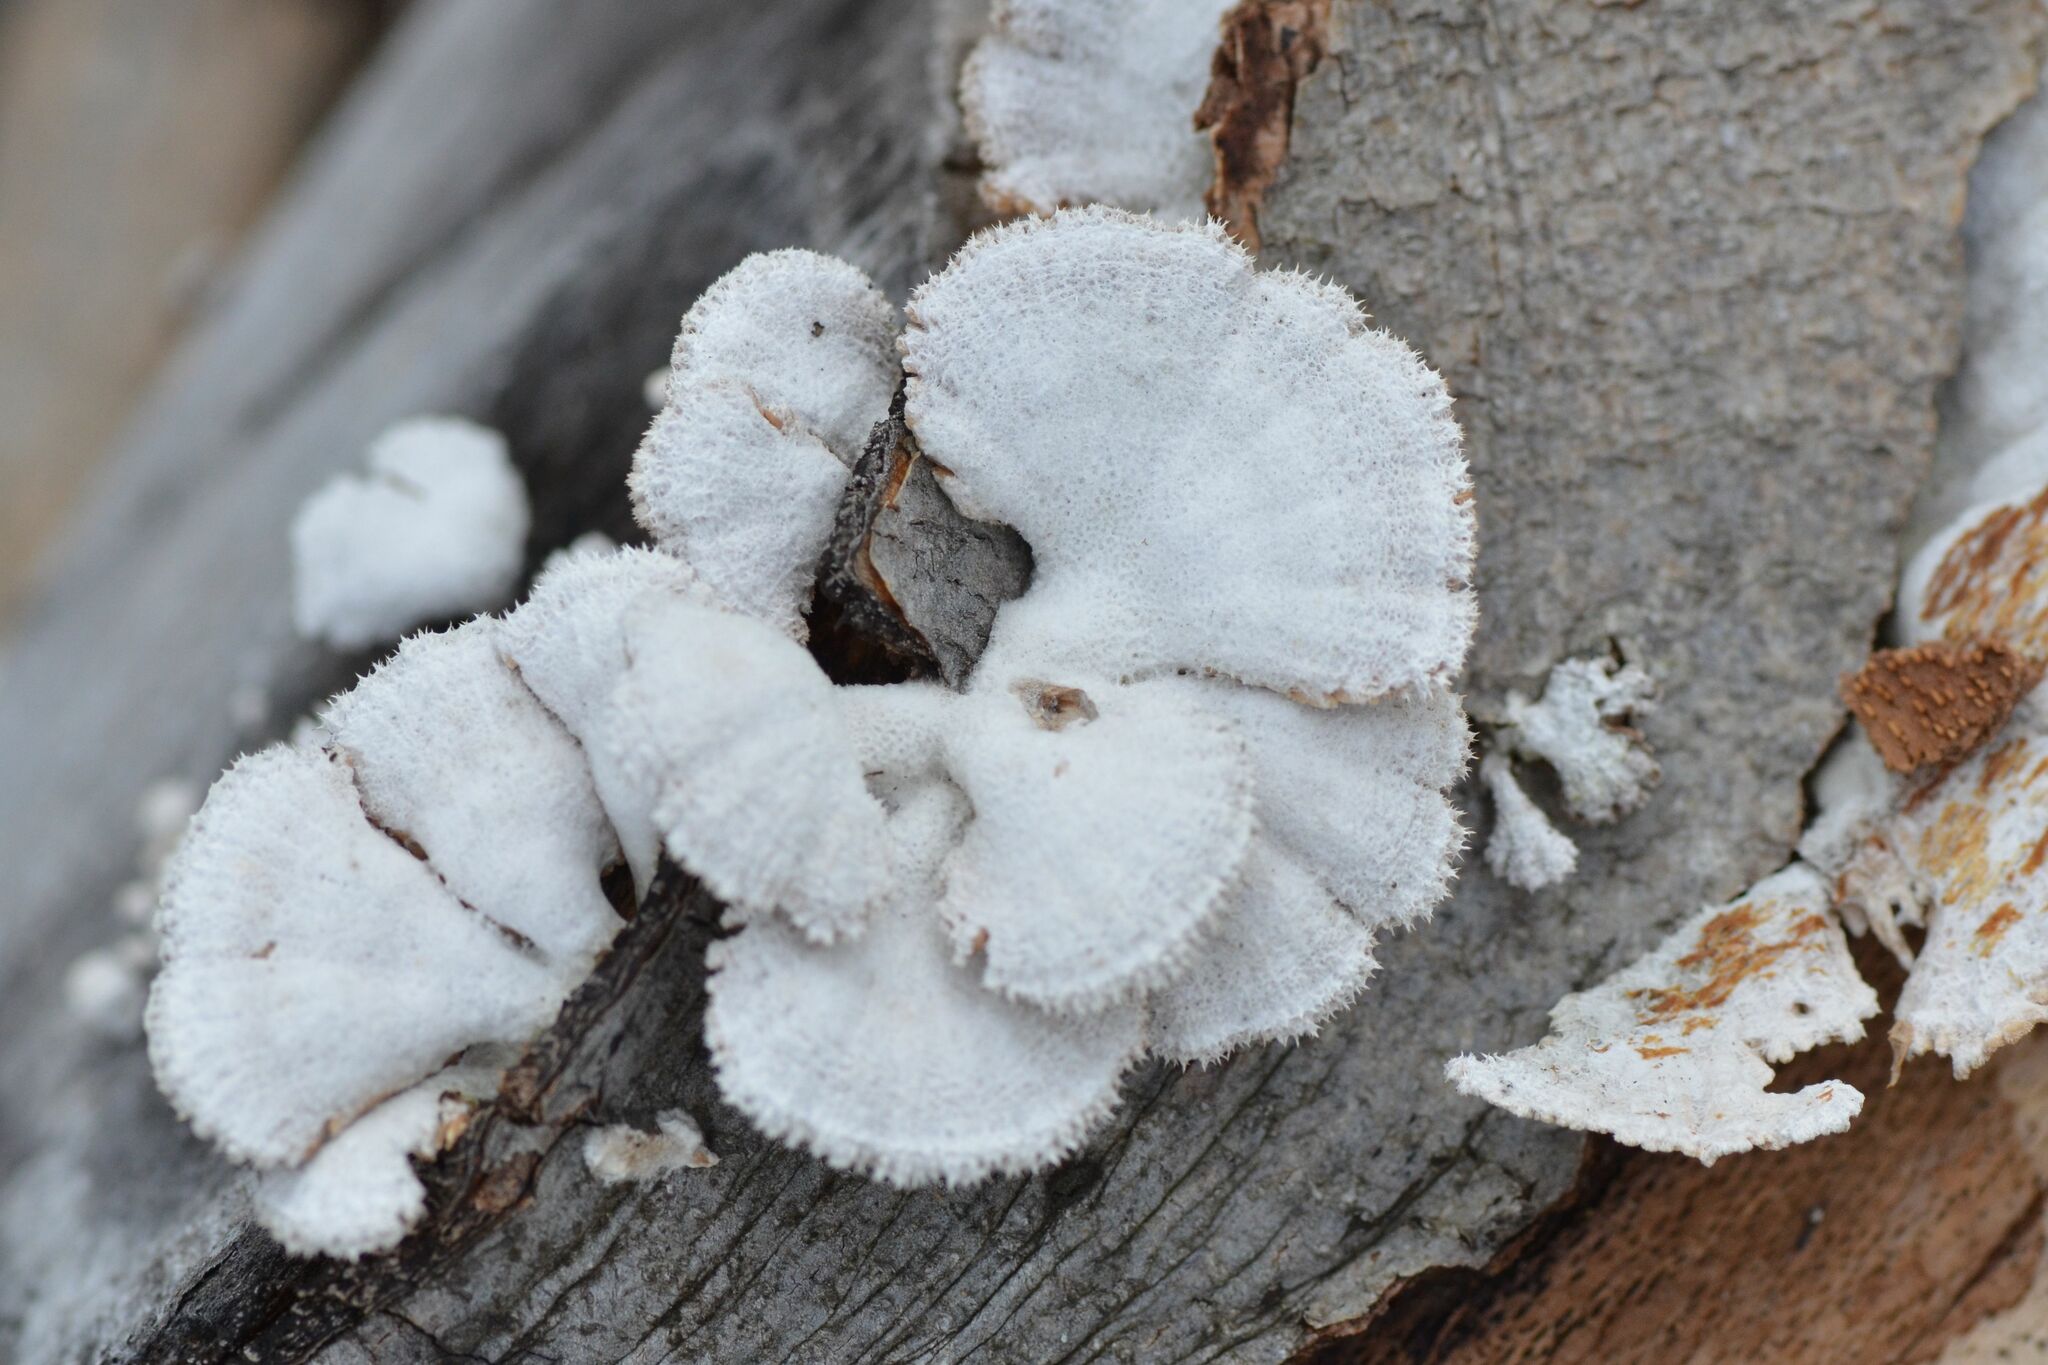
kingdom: Fungi
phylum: Basidiomycota
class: Agaricomycetes
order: Agaricales
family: Schizophyllaceae
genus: Schizophyllum
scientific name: Schizophyllum commune
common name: Common porecrust
